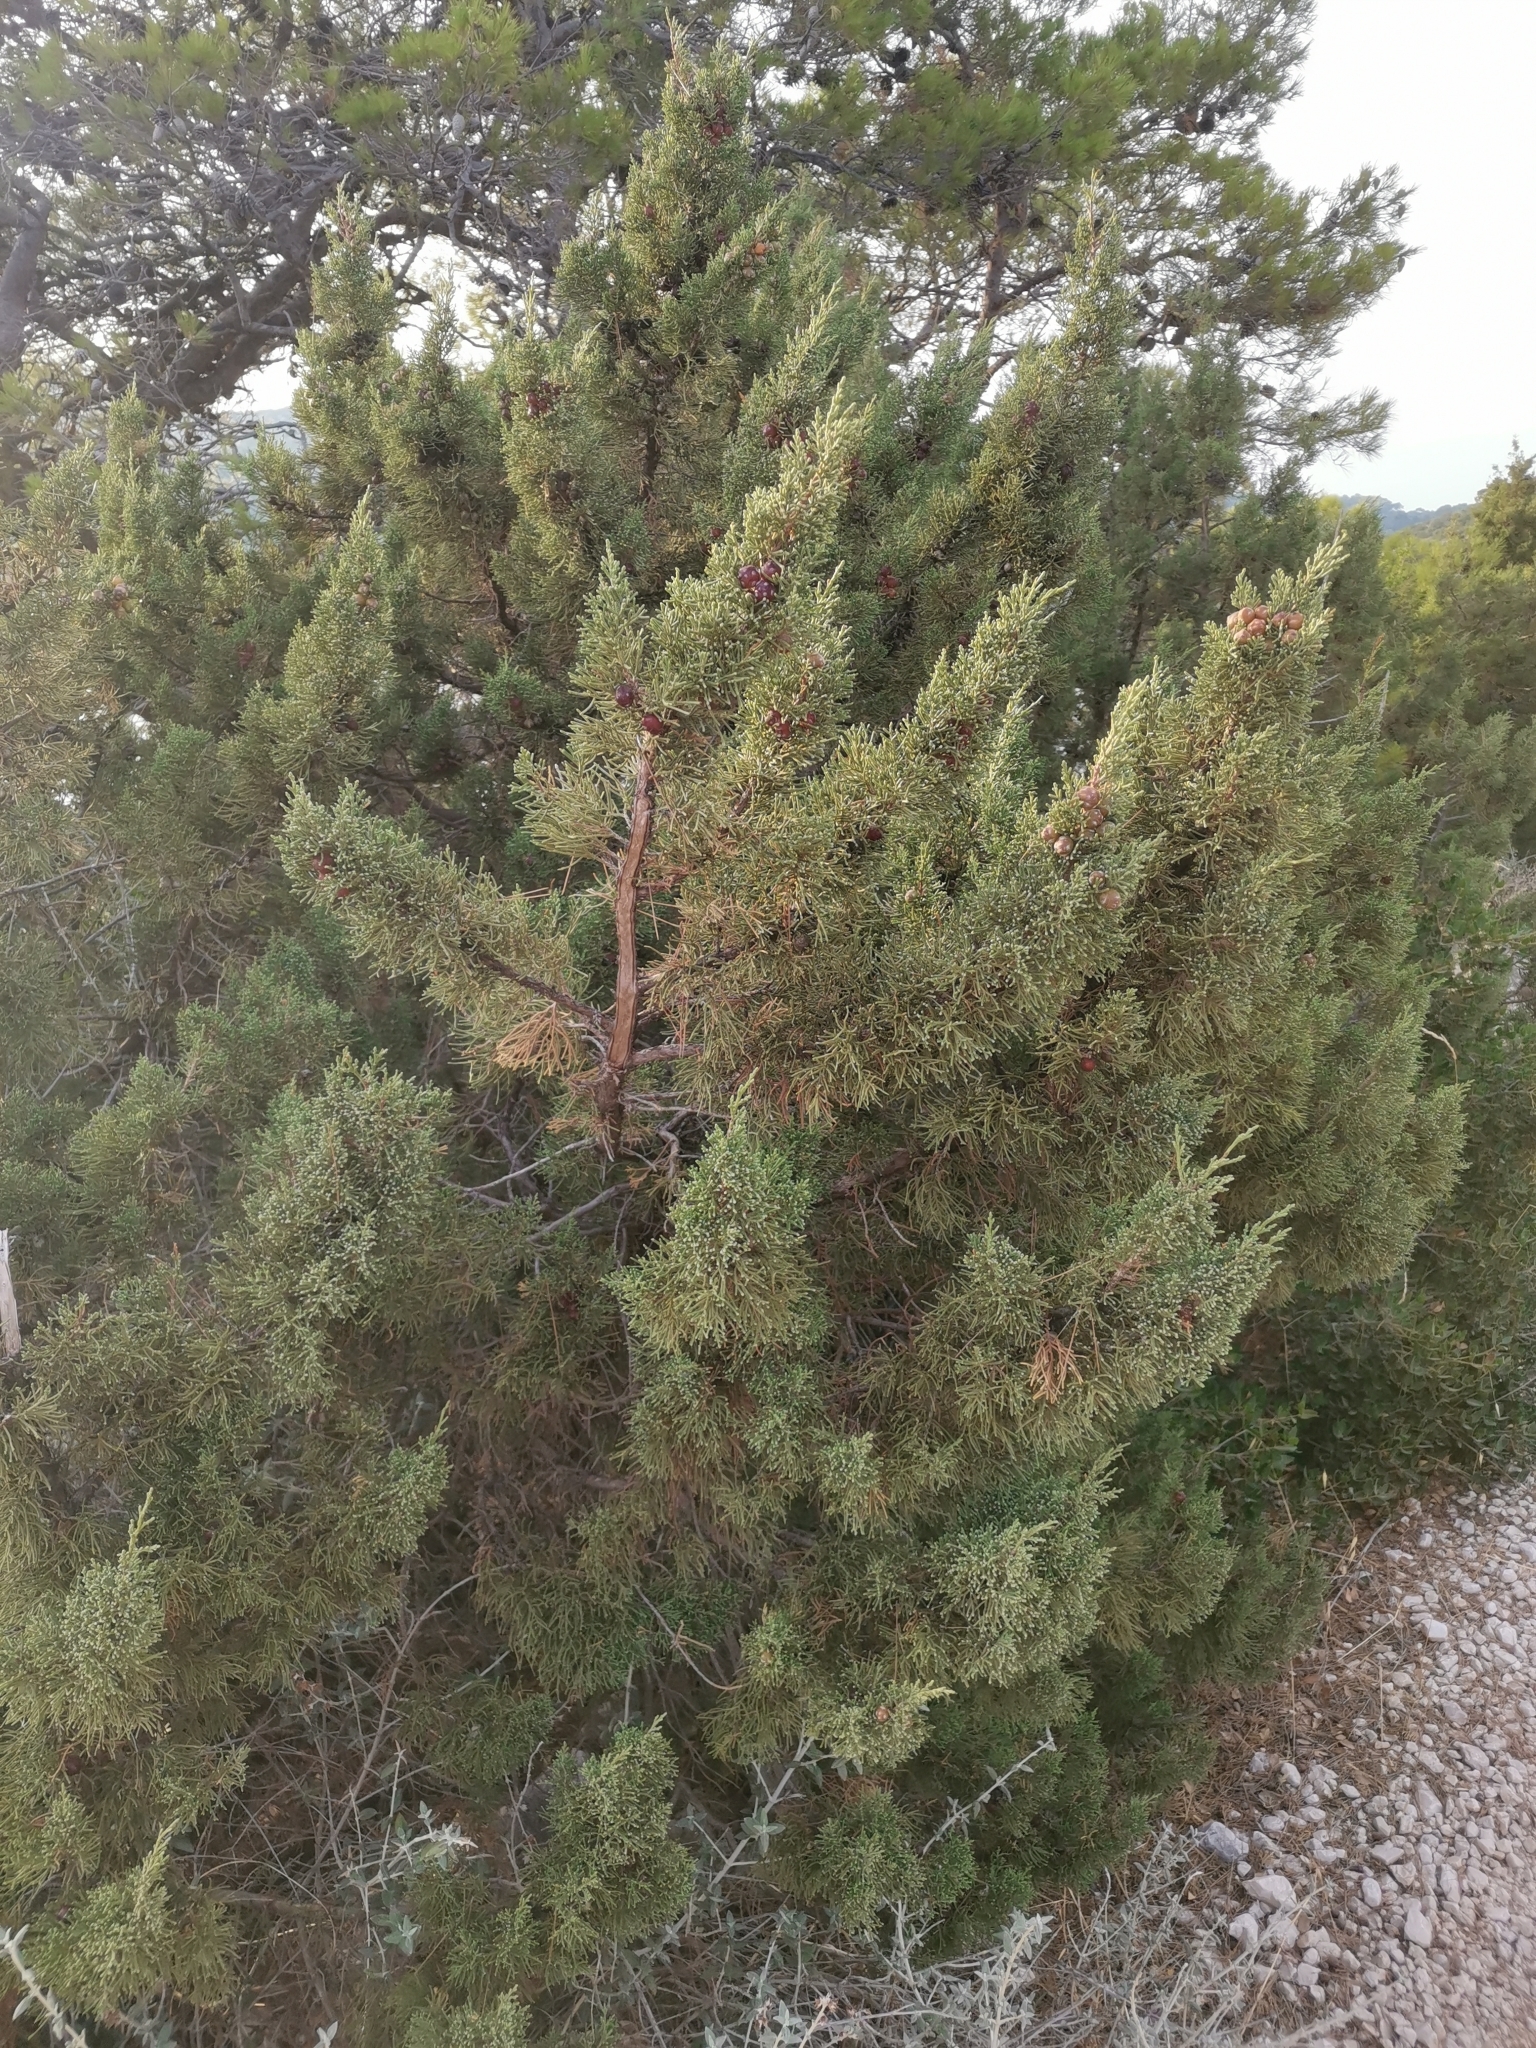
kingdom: Plantae
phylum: Tracheophyta
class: Pinopsida
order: Pinales
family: Cupressaceae
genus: Juniperus
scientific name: Juniperus phoenicea
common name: Phoenician juniper
